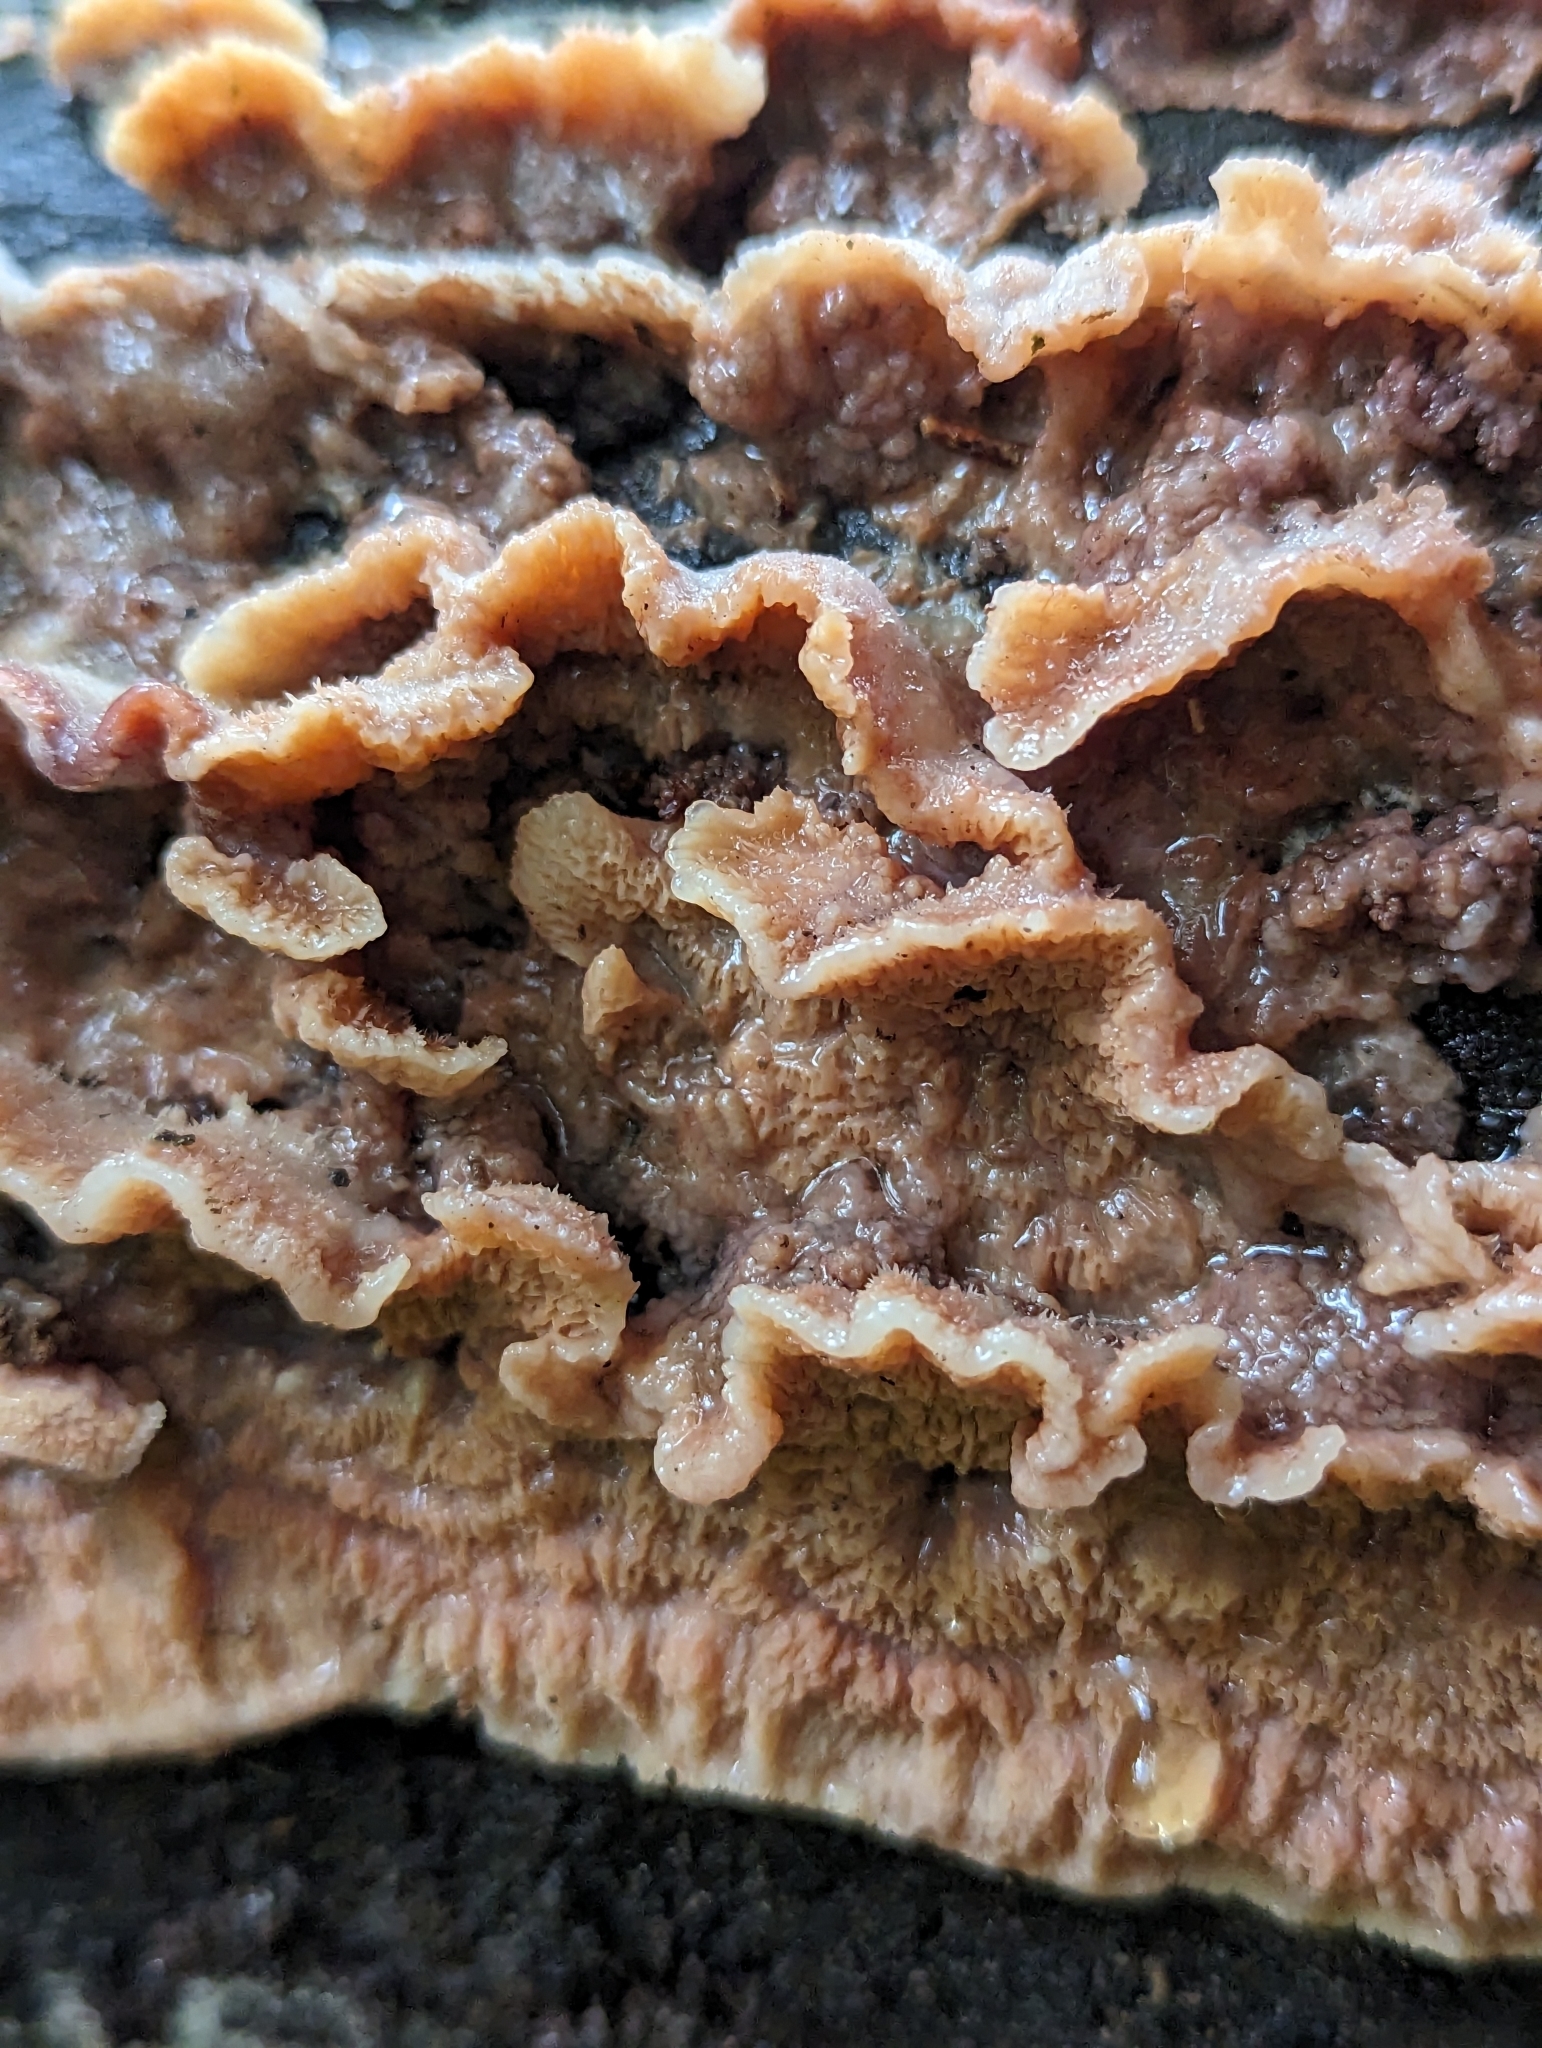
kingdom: Fungi
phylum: Basidiomycota
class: Agaricomycetes
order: Polyporales
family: Meruliaceae
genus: Phlebia
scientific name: Phlebia tremellosa
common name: Jelly rot
